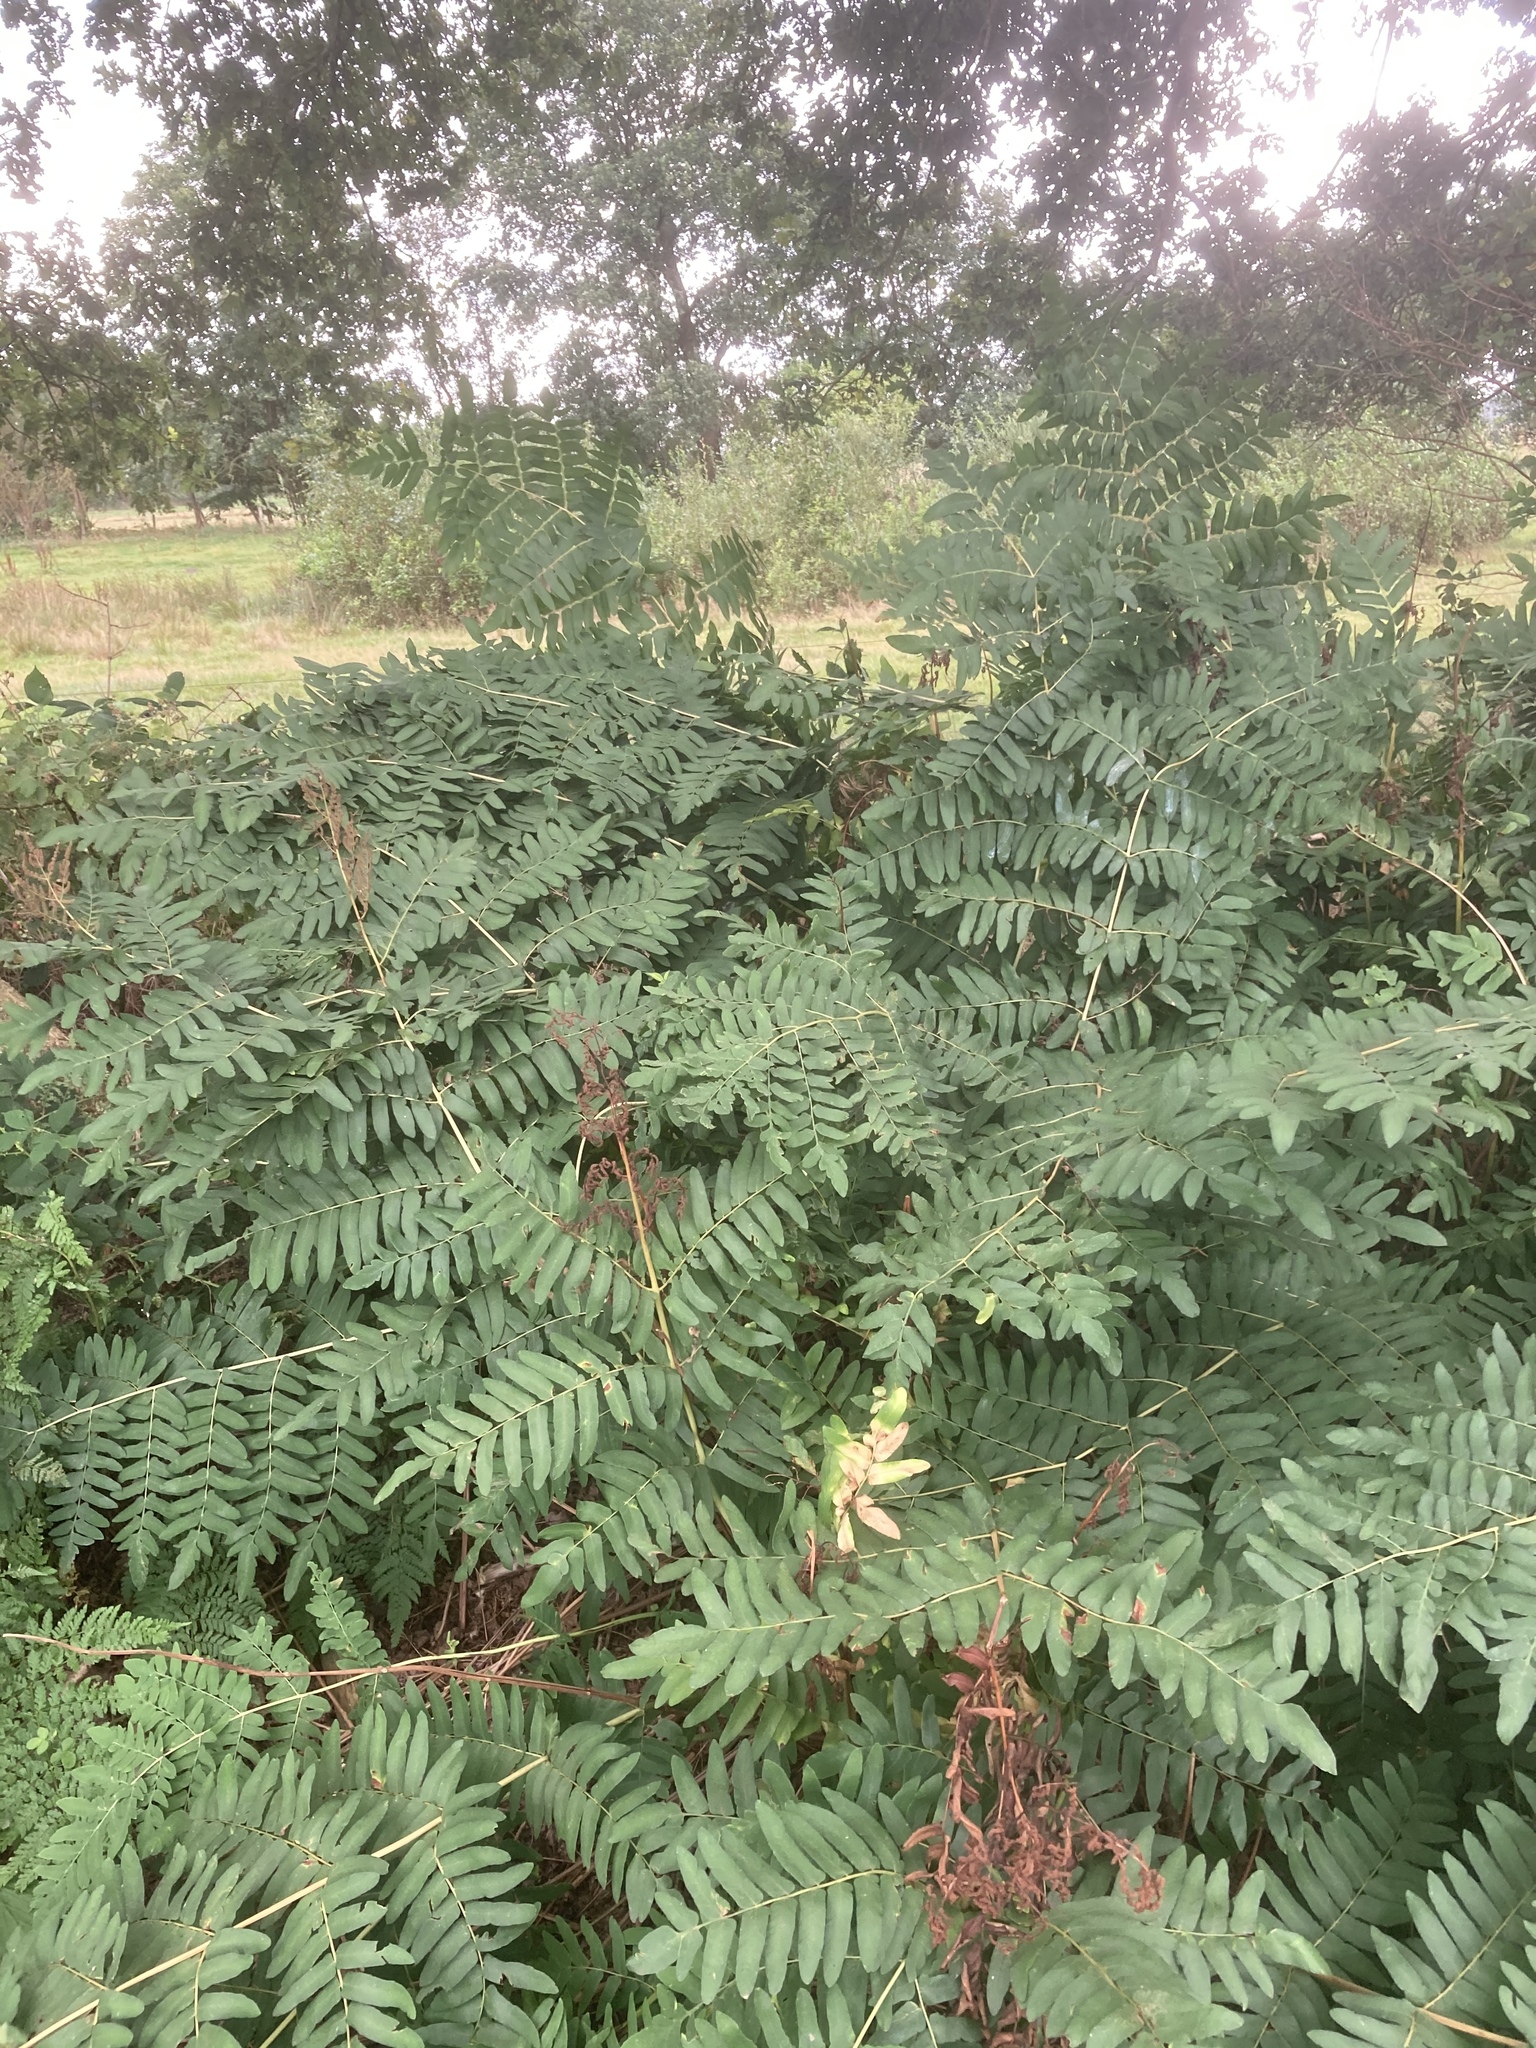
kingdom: Plantae
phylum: Tracheophyta
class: Polypodiopsida
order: Osmundales
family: Osmundaceae
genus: Osmunda
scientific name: Osmunda regalis
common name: Royal fern
